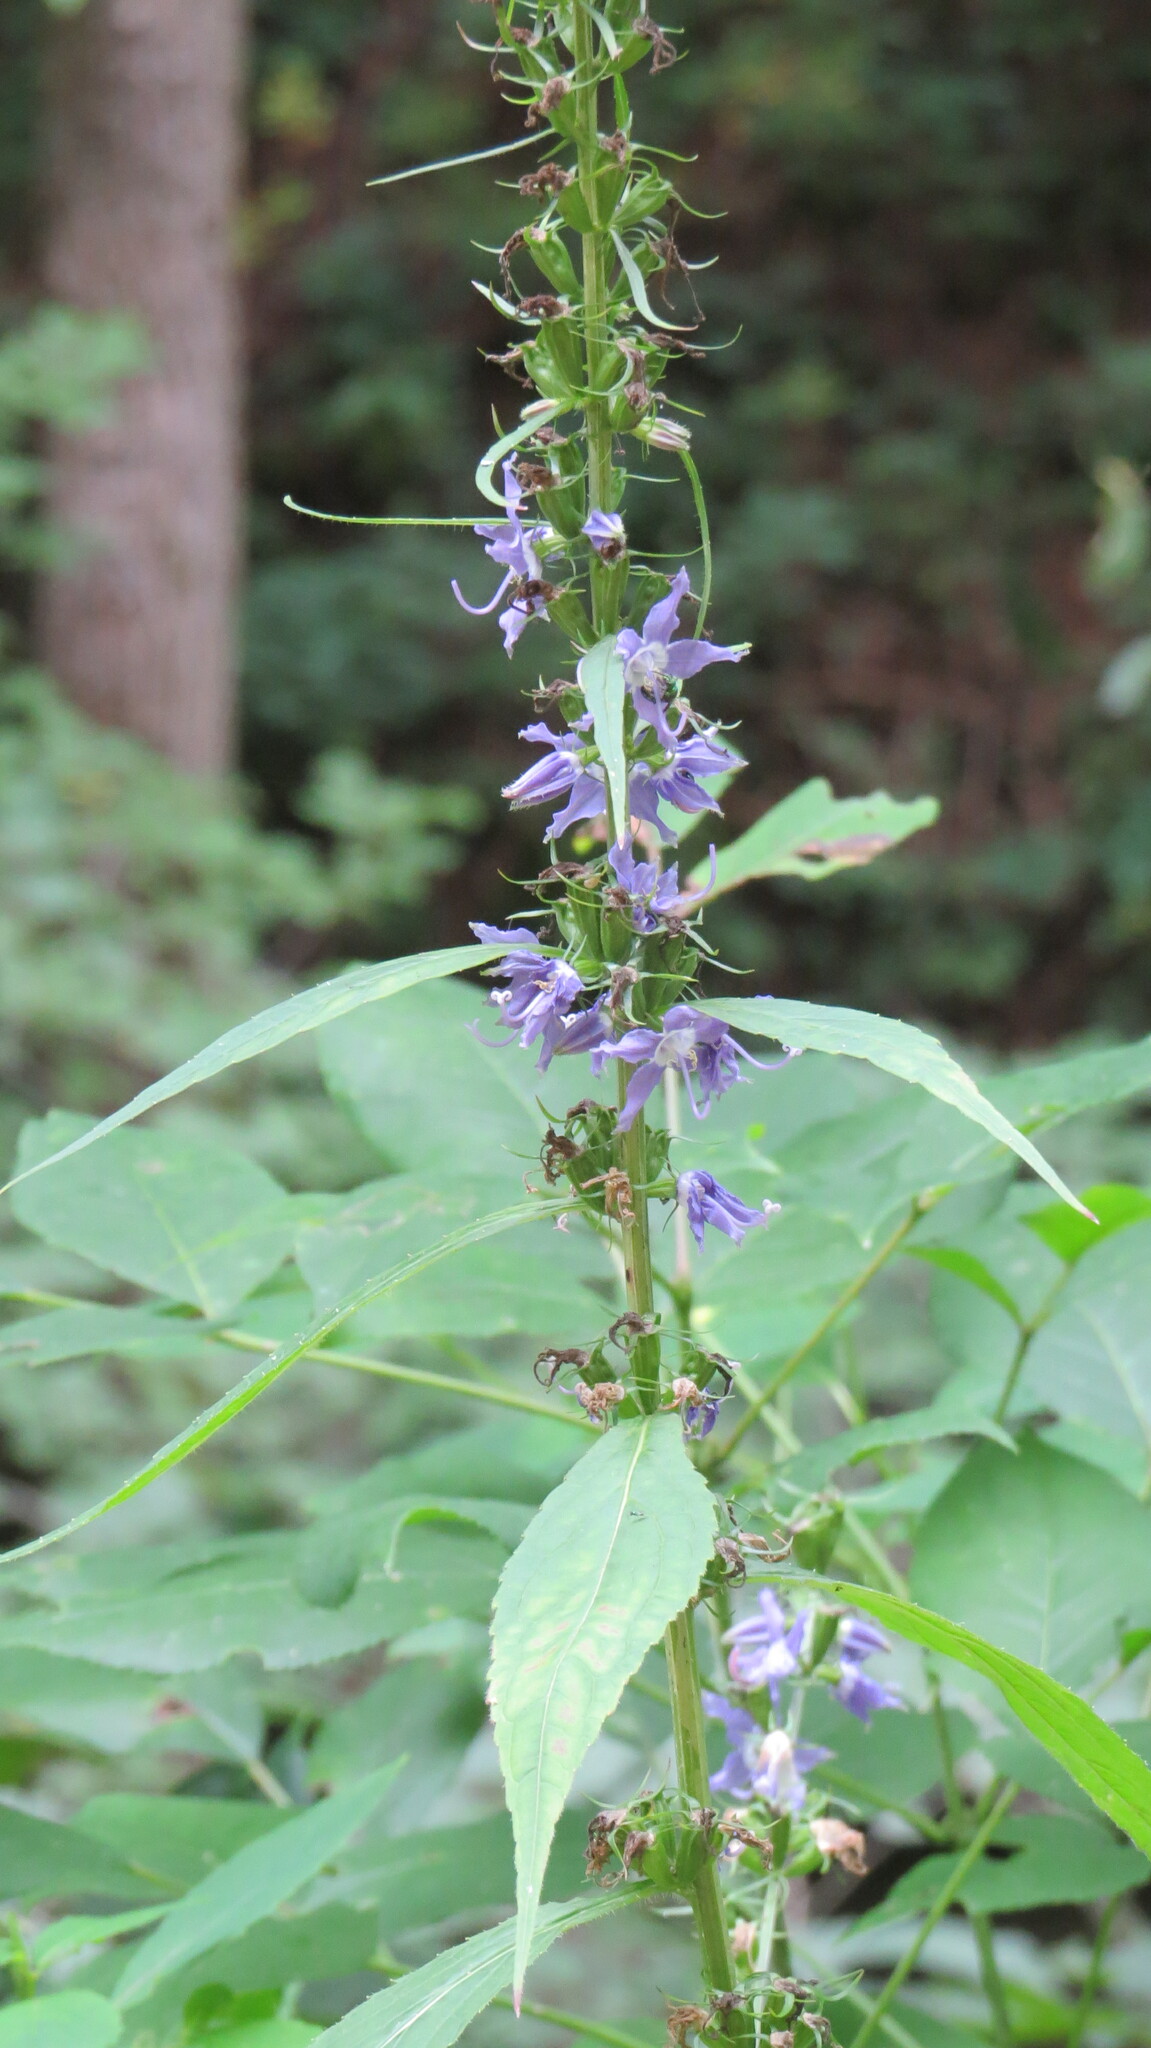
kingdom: Plantae
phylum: Tracheophyta
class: Magnoliopsida
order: Asterales
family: Campanulaceae
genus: Campanulastrum
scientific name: Campanulastrum americanum
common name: American bellflower
